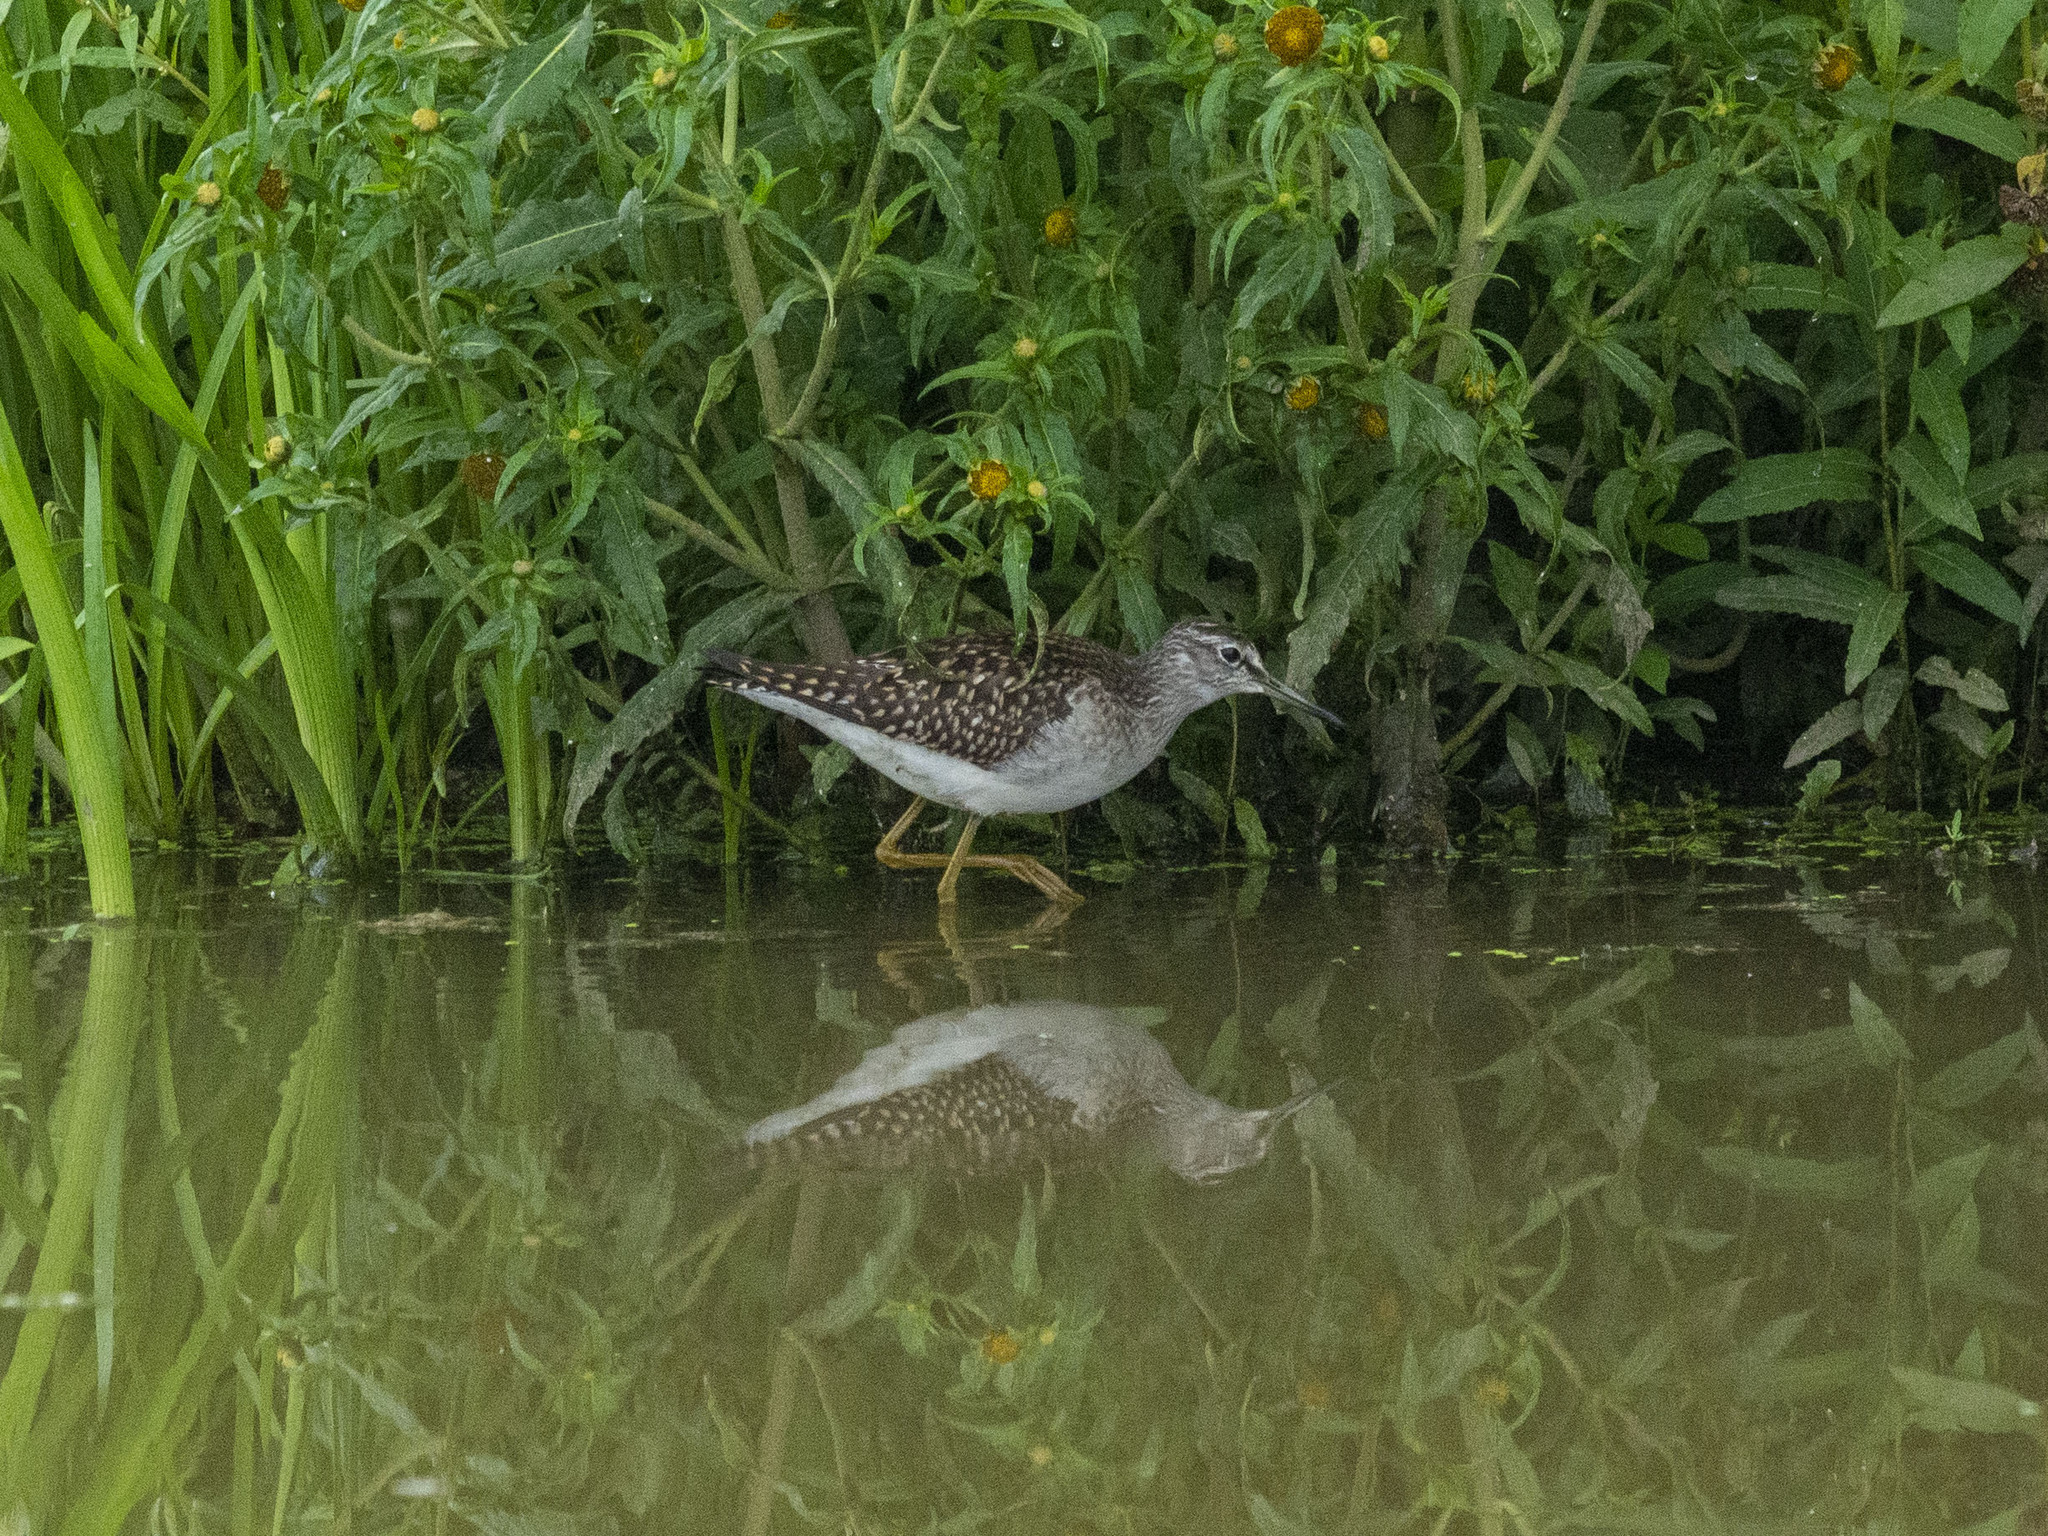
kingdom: Animalia
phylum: Chordata
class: Aves
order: Charadriiformes
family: Scolopacidae
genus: Tringa
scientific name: Tringa glareola
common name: Wood sandpiper
